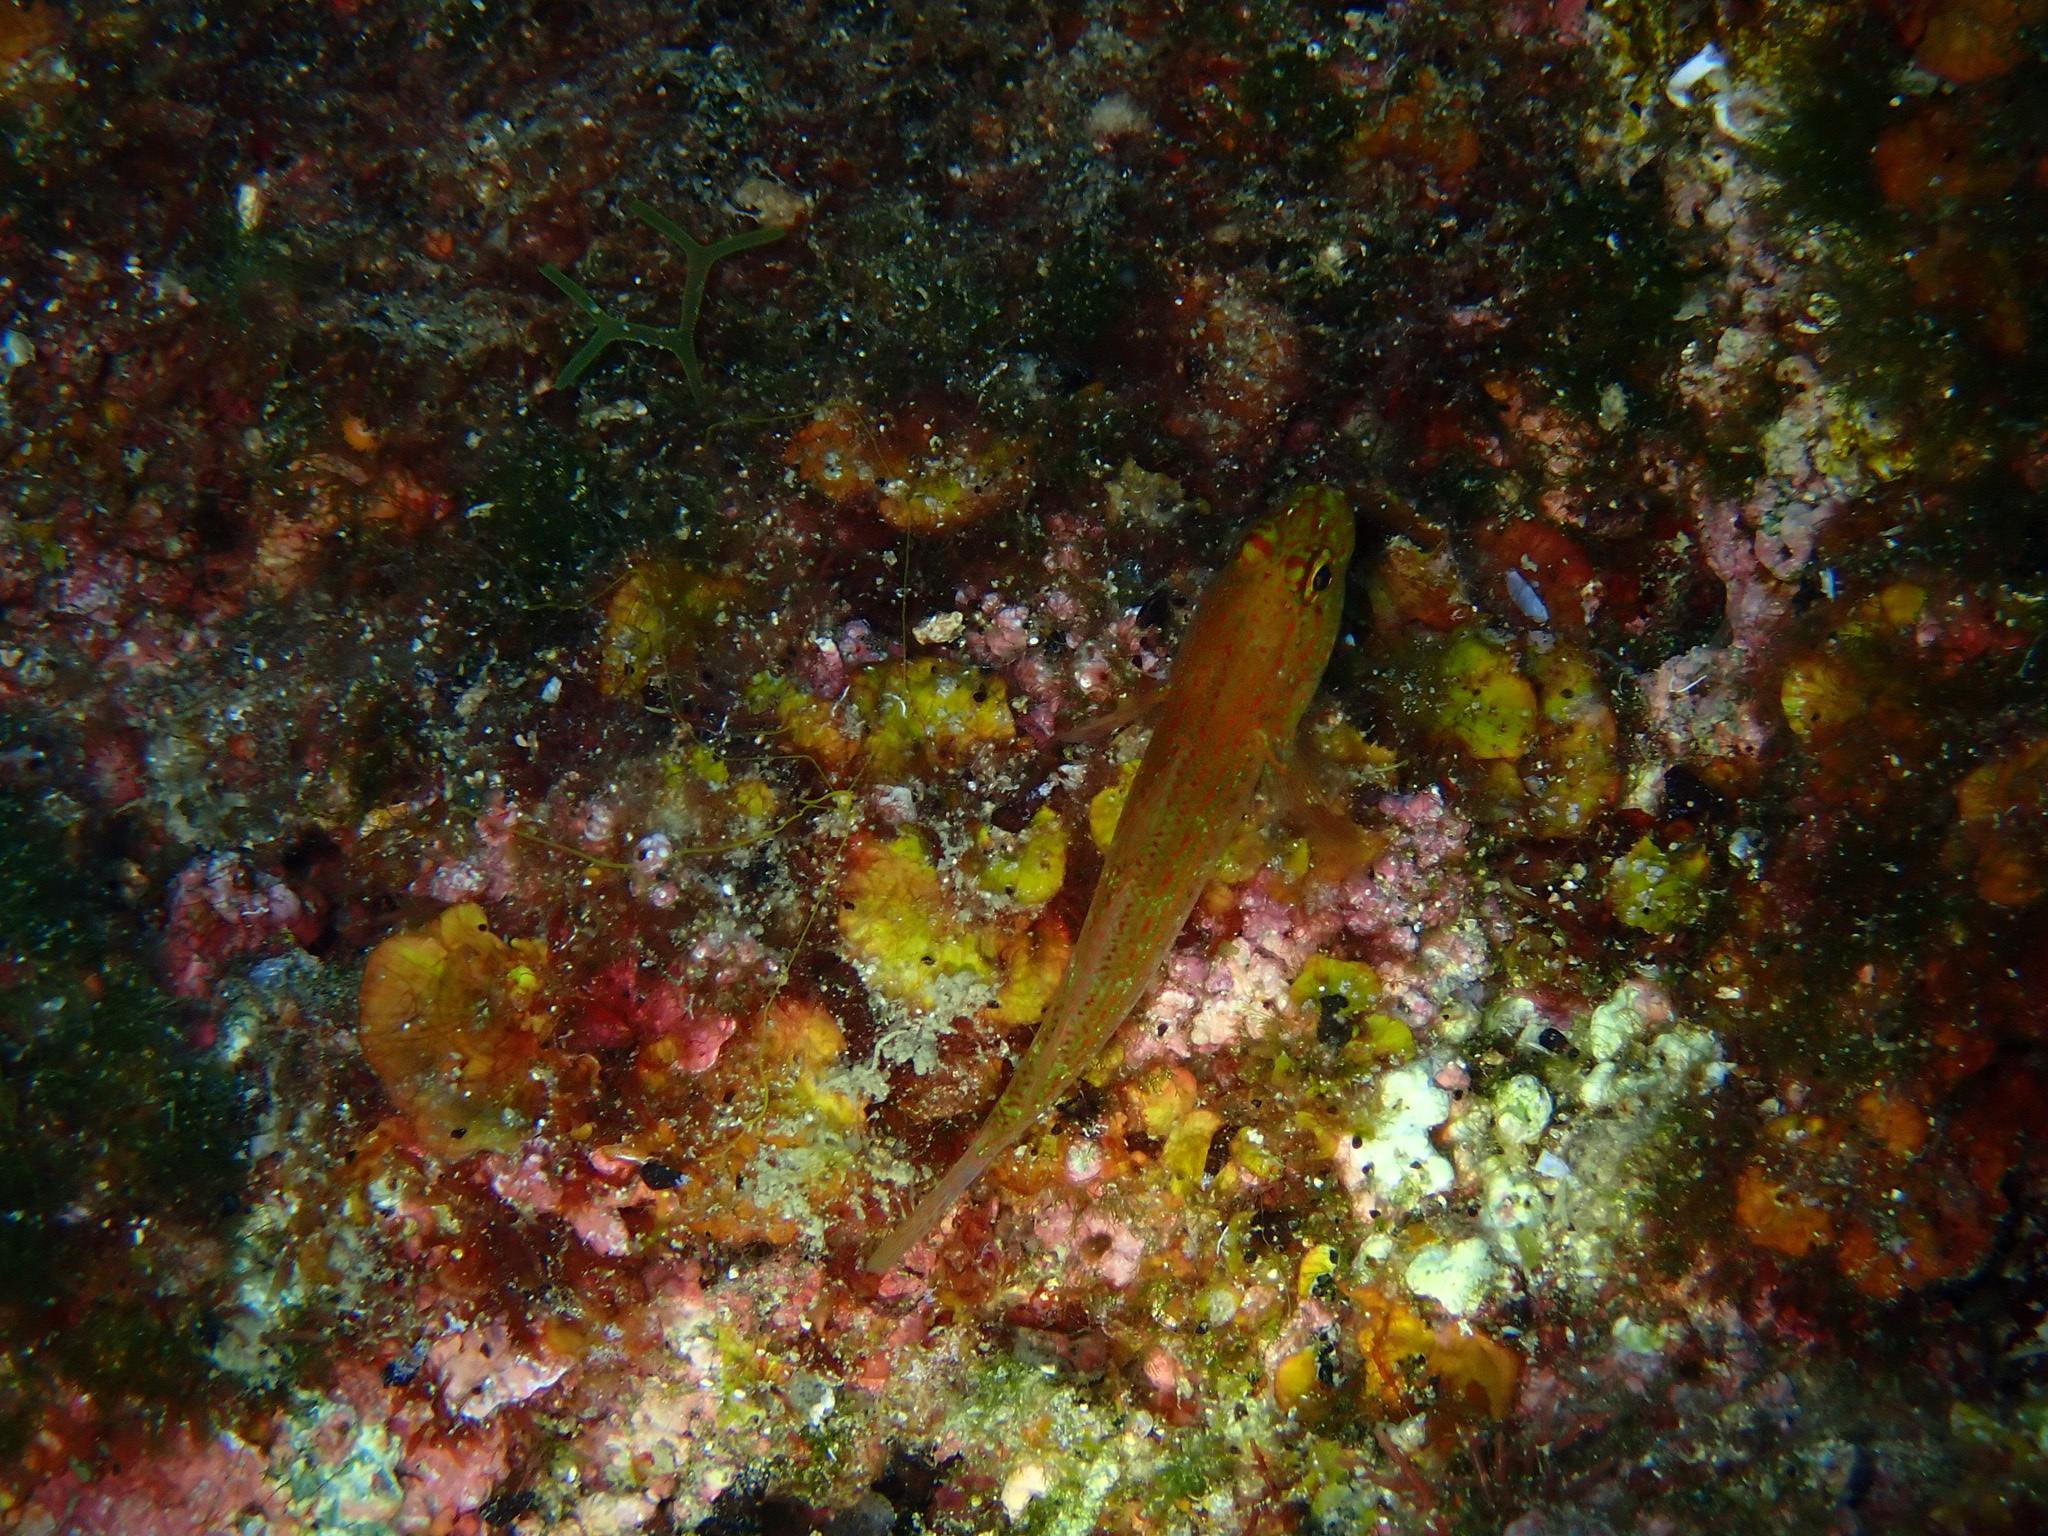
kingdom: Animalia
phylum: Chordata
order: Perciformes
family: Gobiidae
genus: Gobius
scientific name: Gobius auratus
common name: Golden goby
